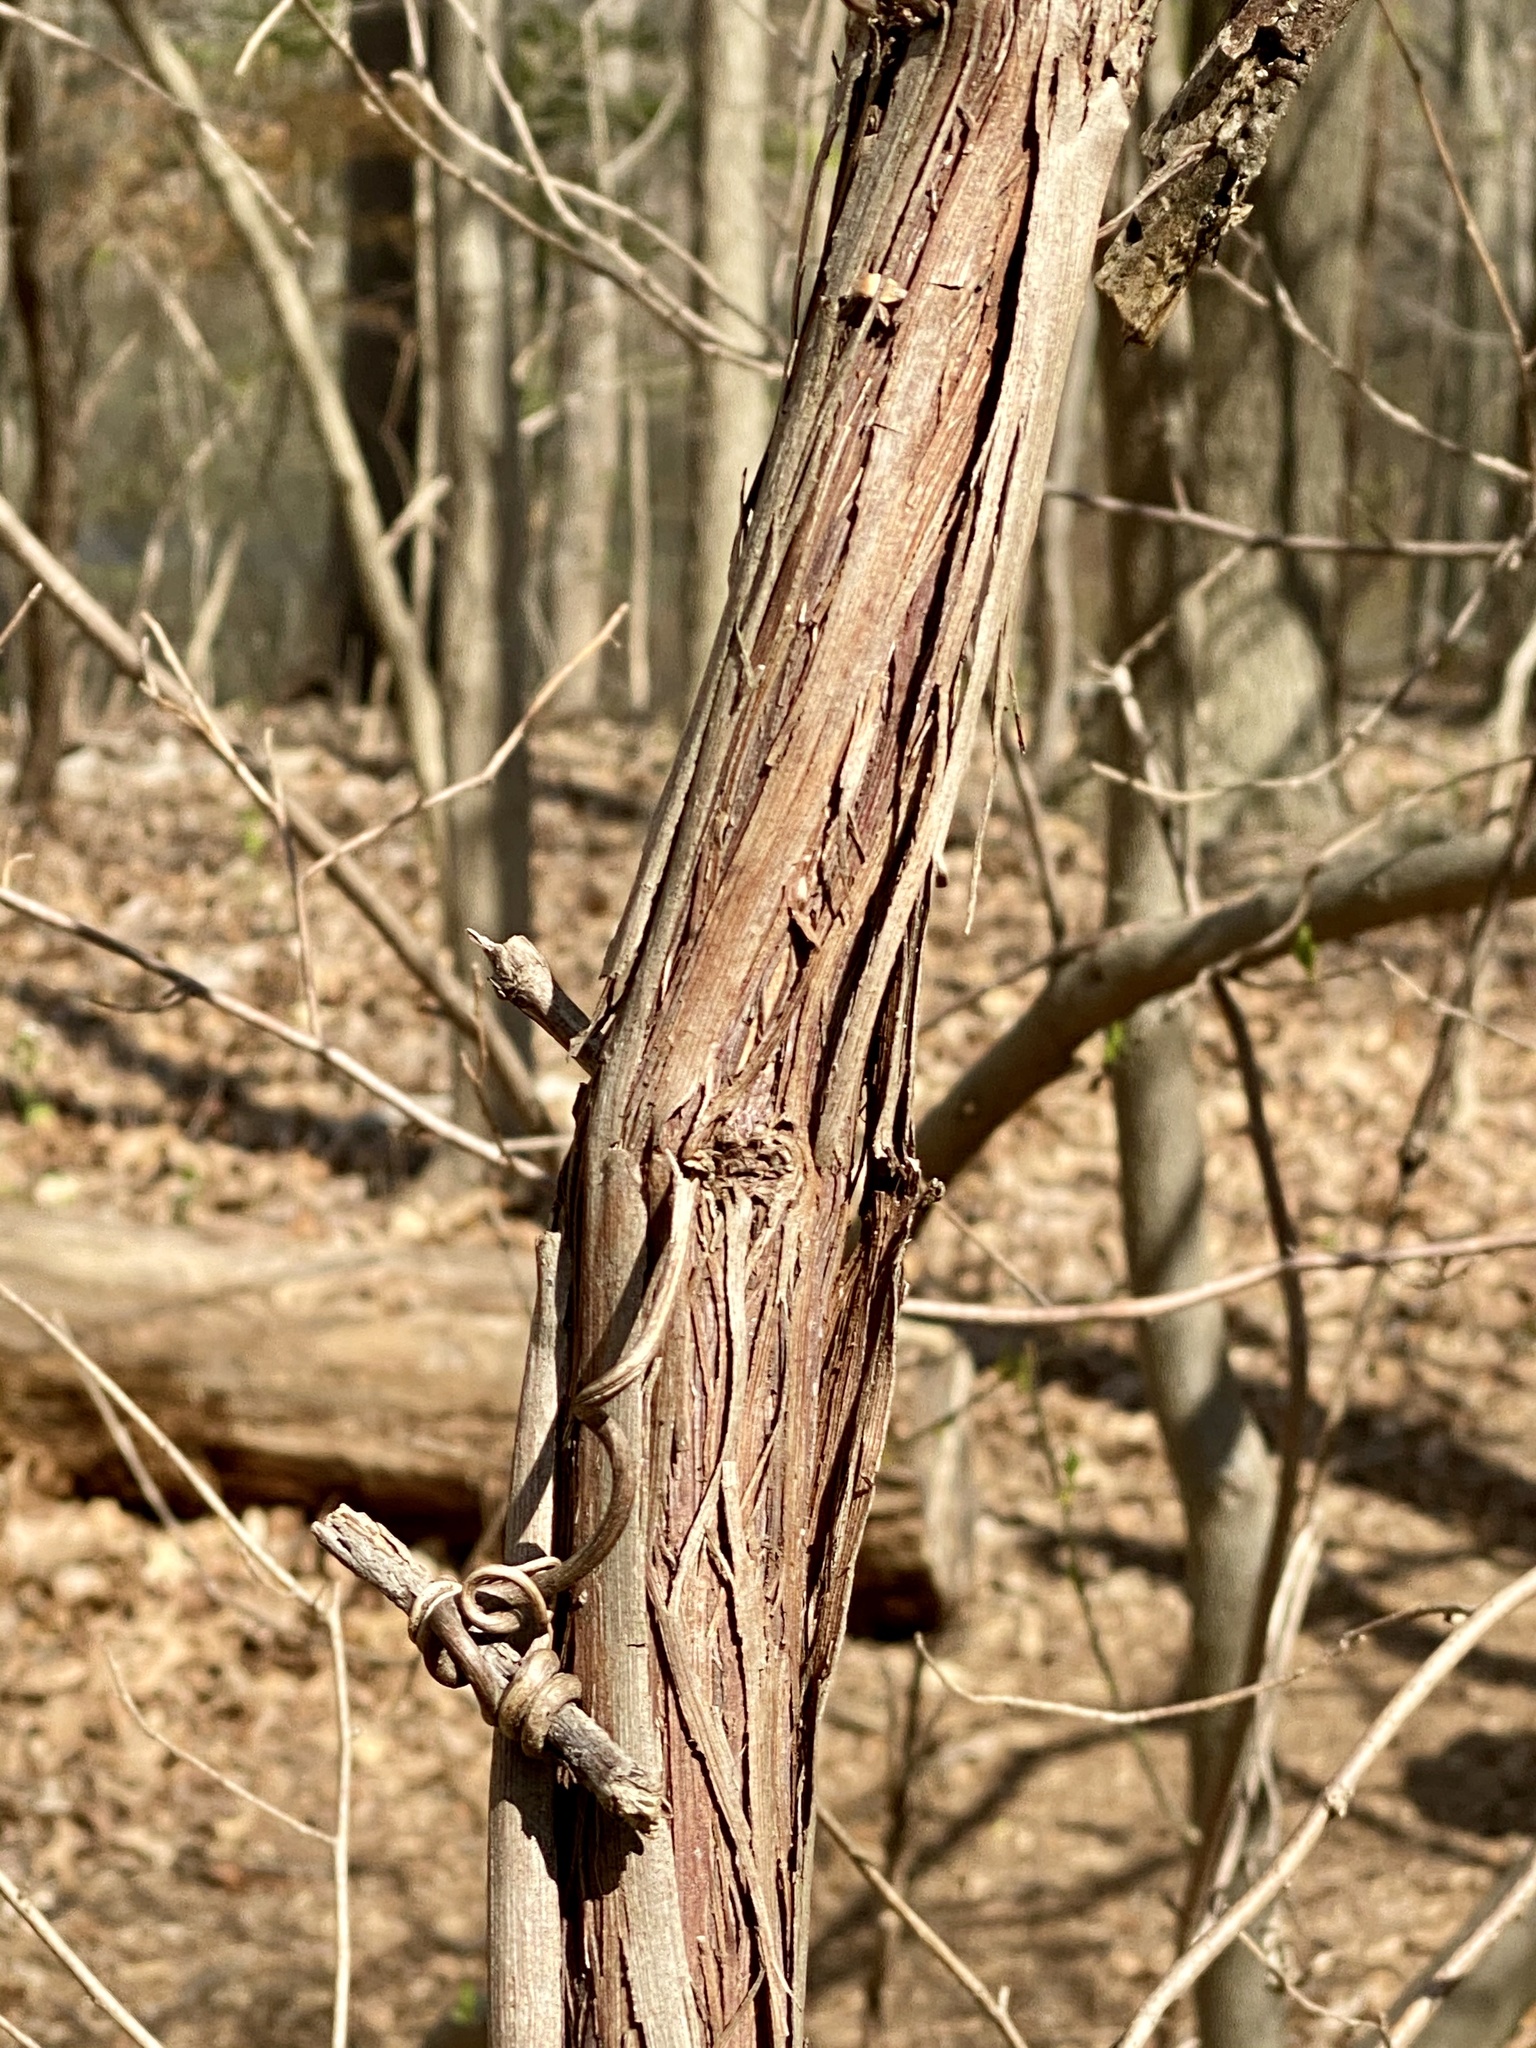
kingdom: Plantae
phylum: Tracheophyta
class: Magnoliopsida
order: Vitales
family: Vitaceae
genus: Vitis
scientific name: Vitis
